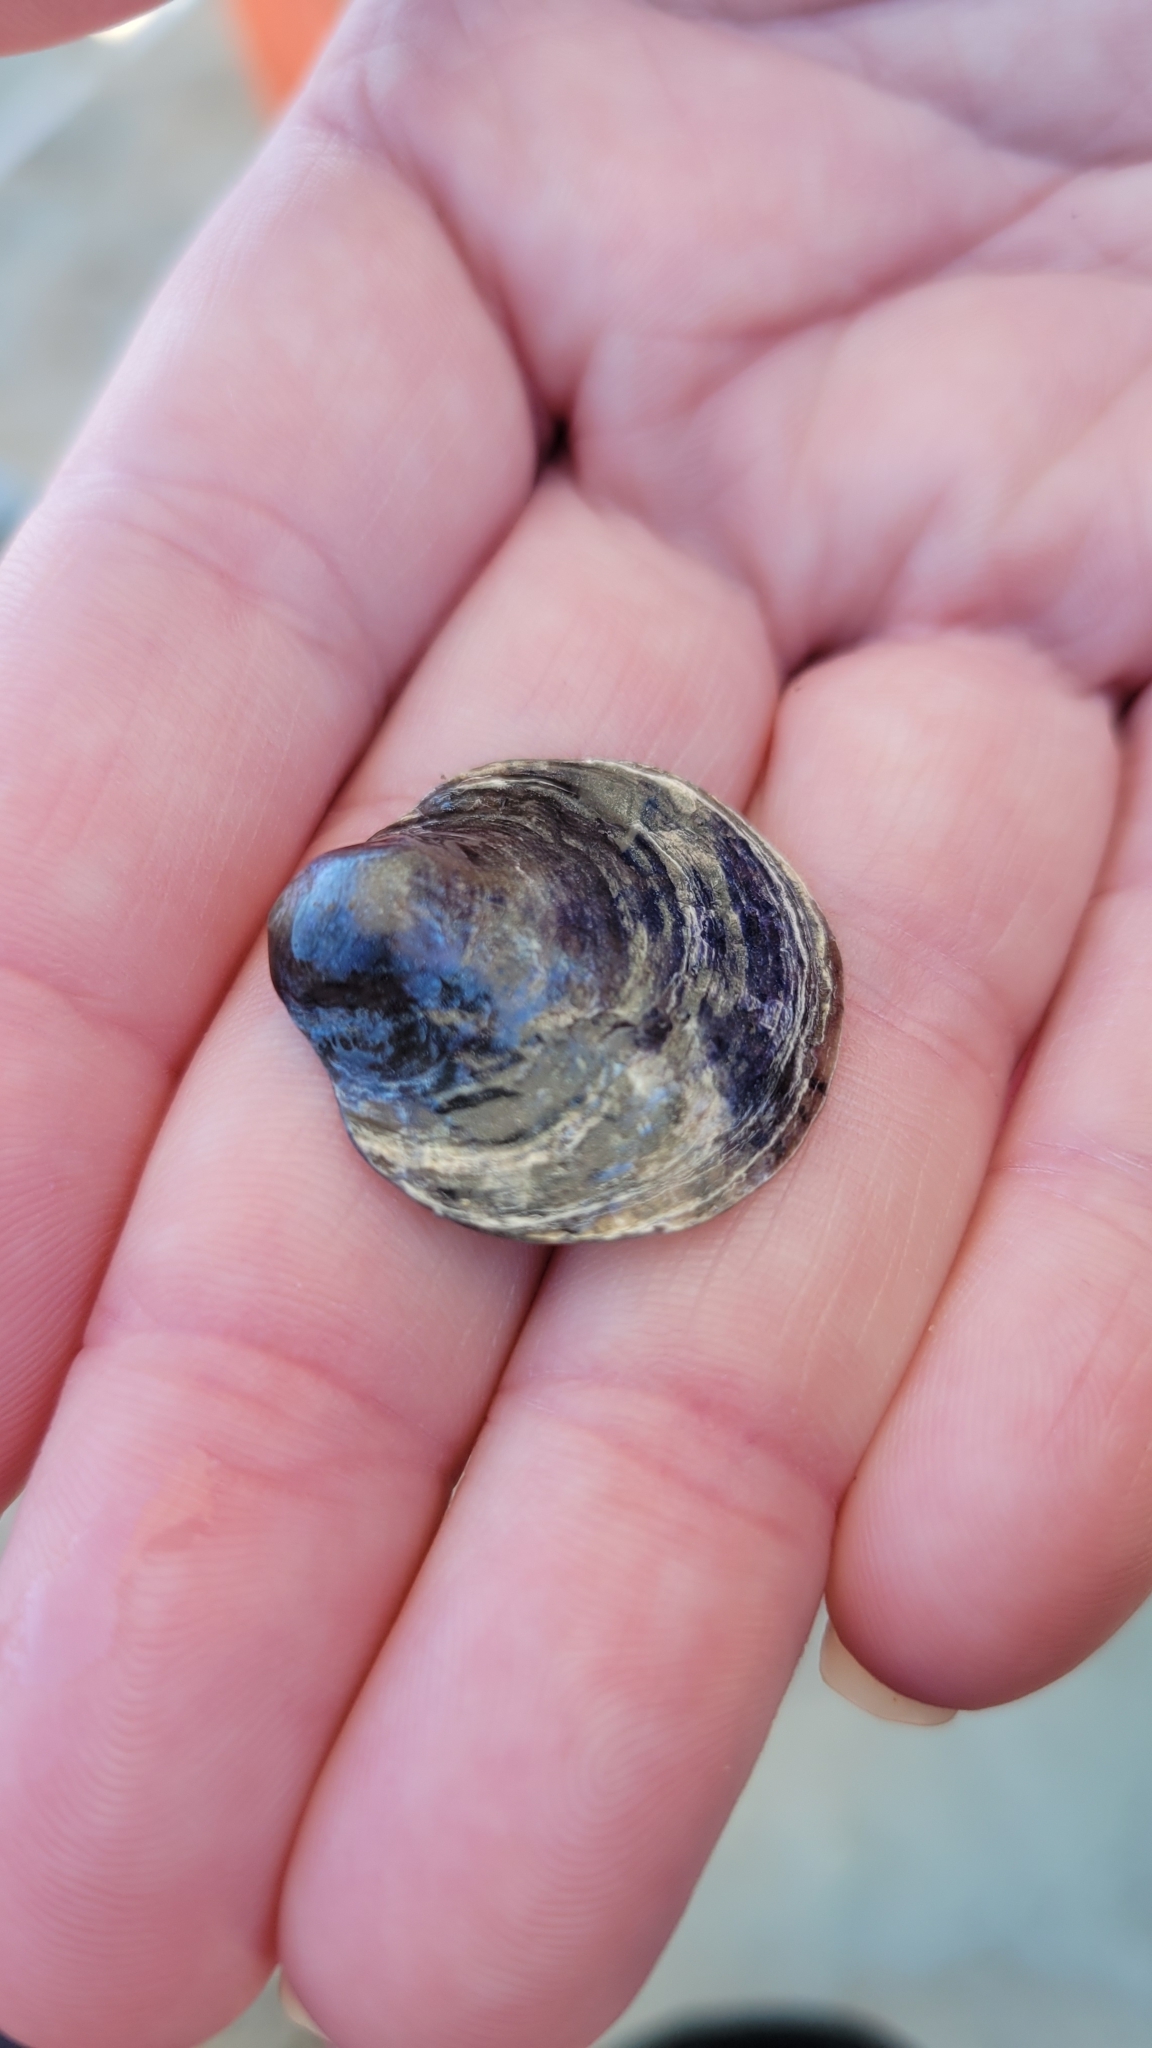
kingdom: Animalia
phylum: Mollusca
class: Bivalvia
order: Pectinida
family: Anomiidae
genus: Anomia
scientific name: Anomia simplex
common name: Common jingle shell
